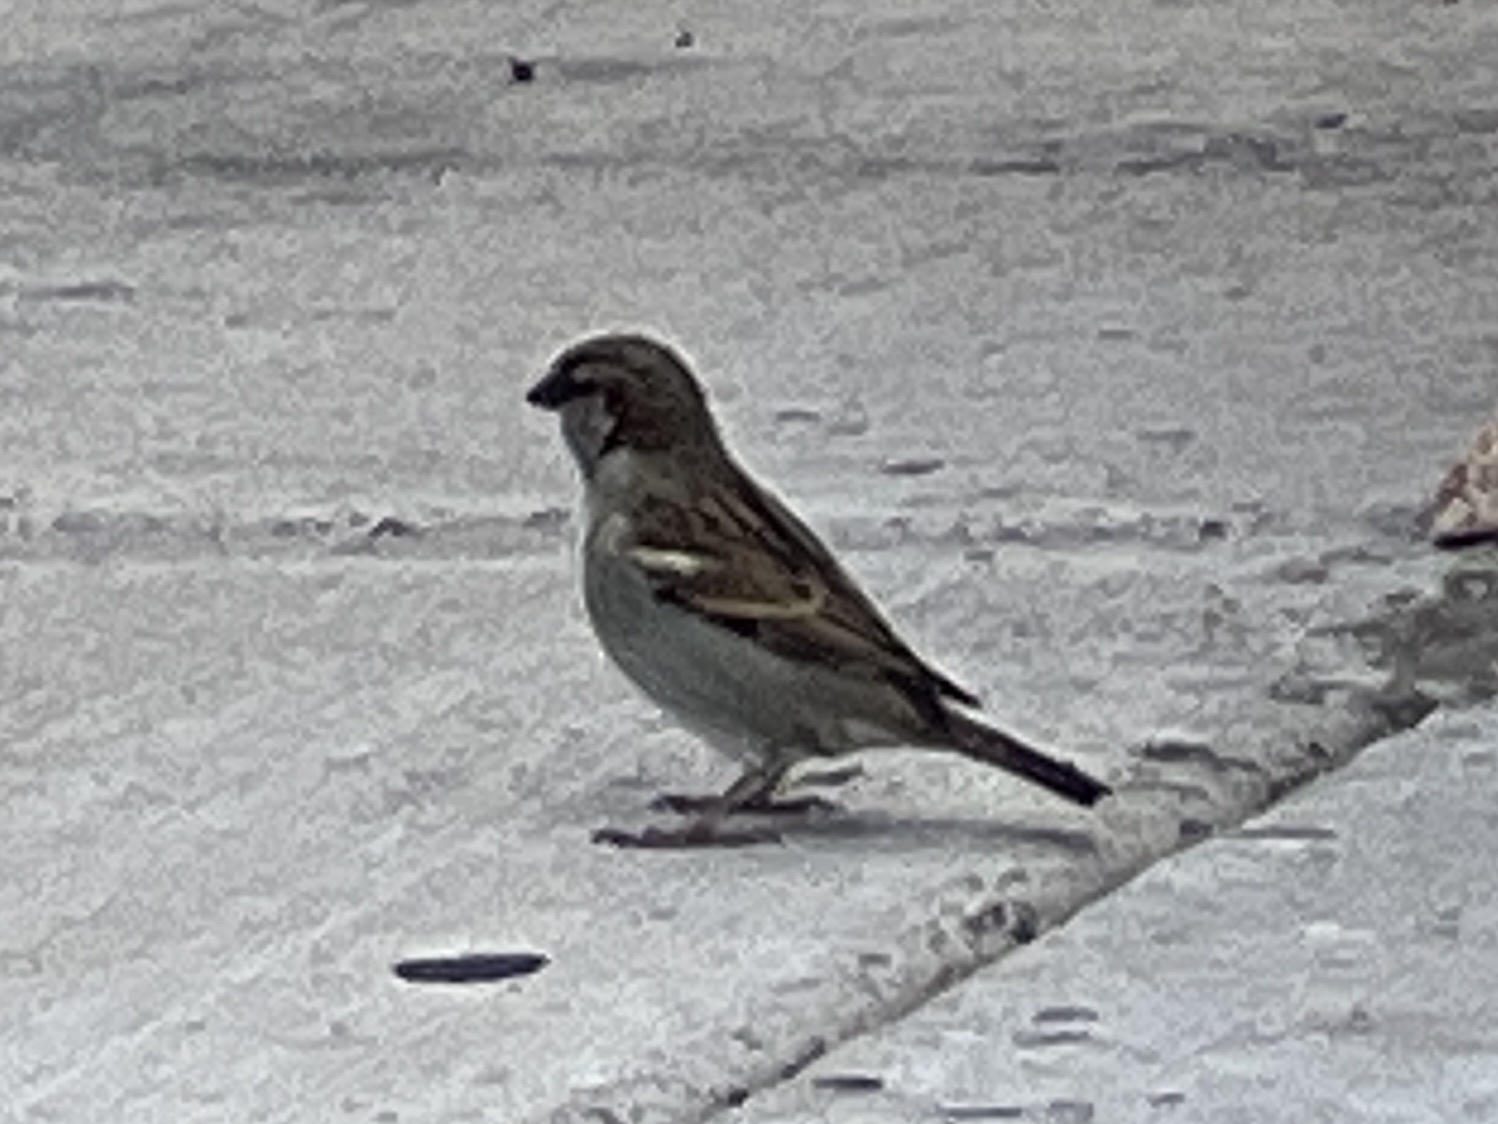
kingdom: Animalia
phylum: Chordata
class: Aves
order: Passeriformes
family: Passeridae
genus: Passer
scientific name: Passer domesticus
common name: House sparrow
